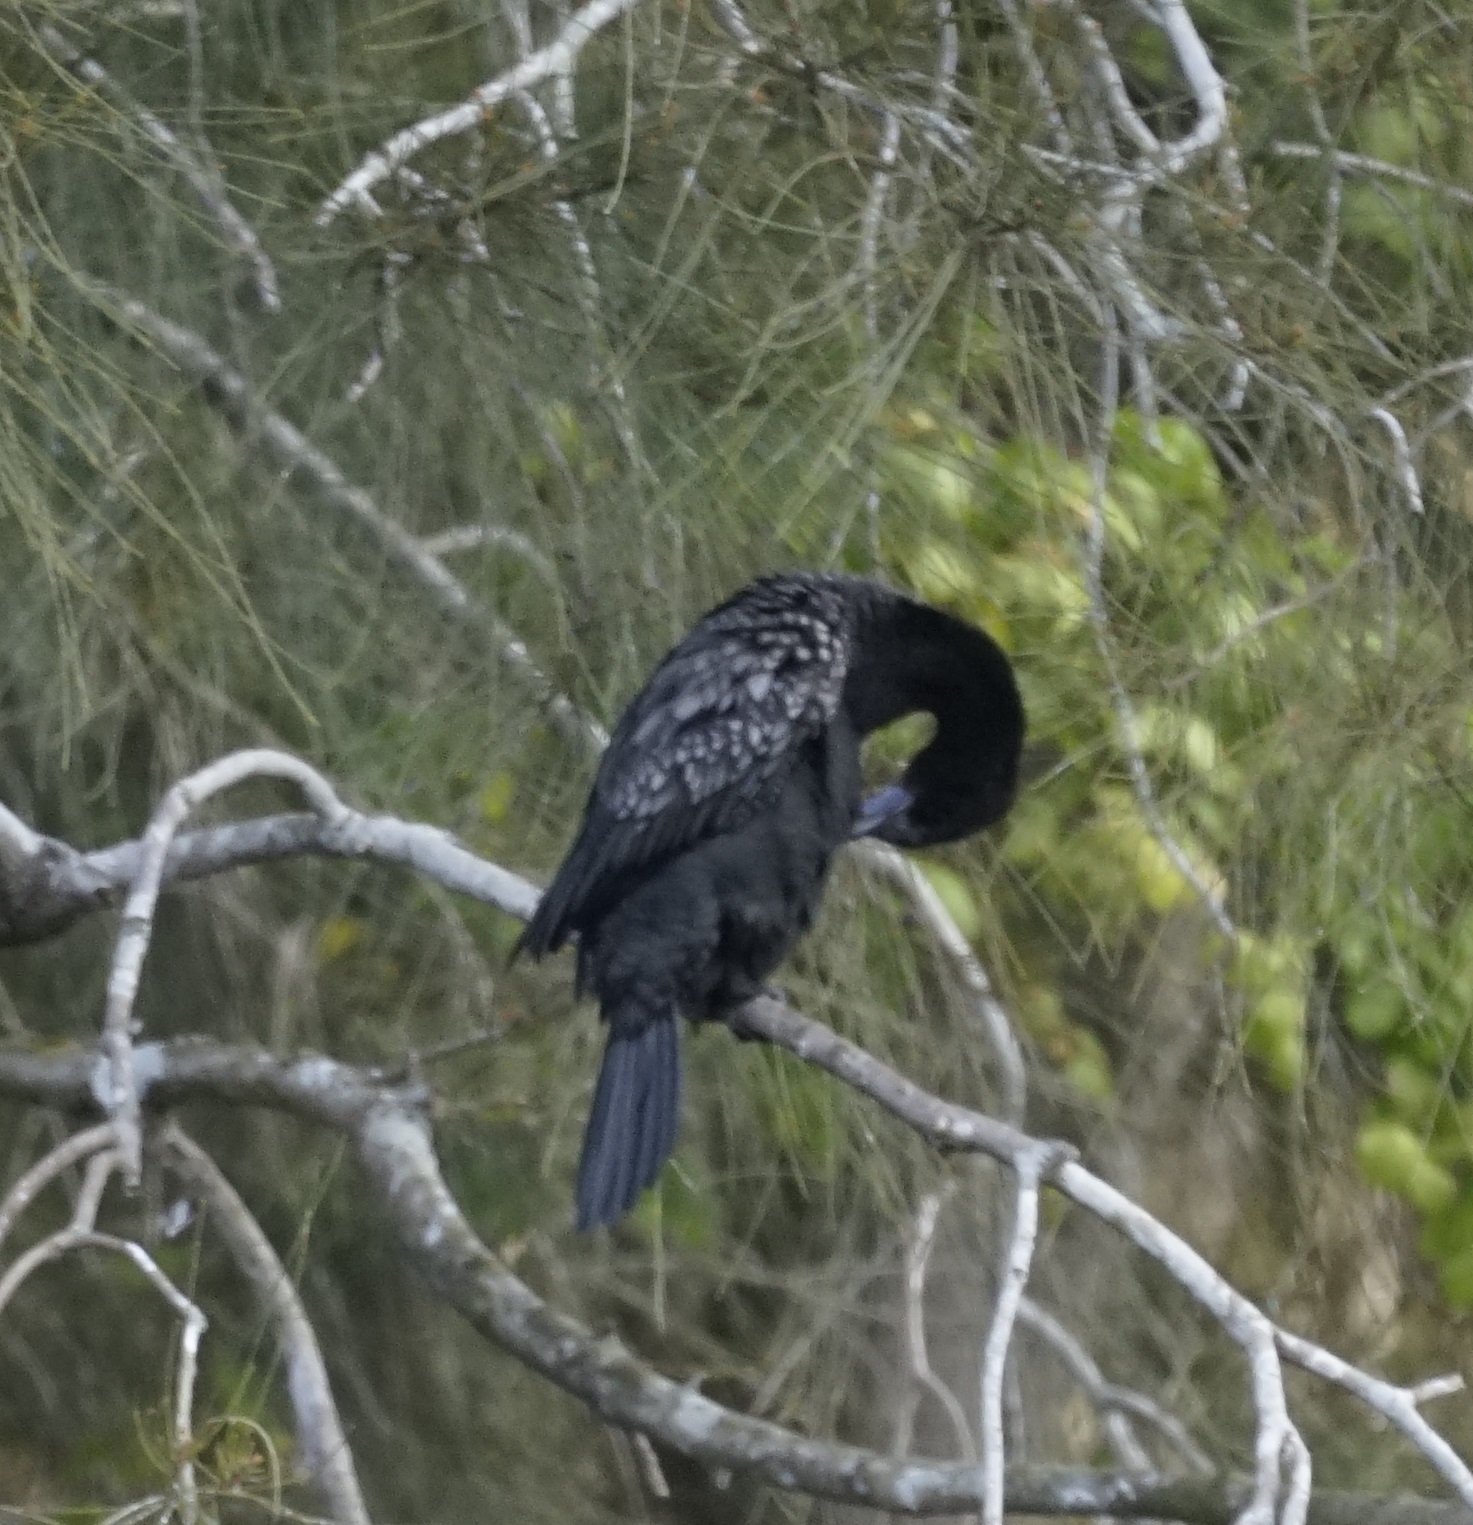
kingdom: Animalia
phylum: Chordata
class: Aves
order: Suliformes
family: Phalacrocoracidae
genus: Phalacrocorax
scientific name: Phalacrocorax sulcirostris
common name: Little black cormorant
